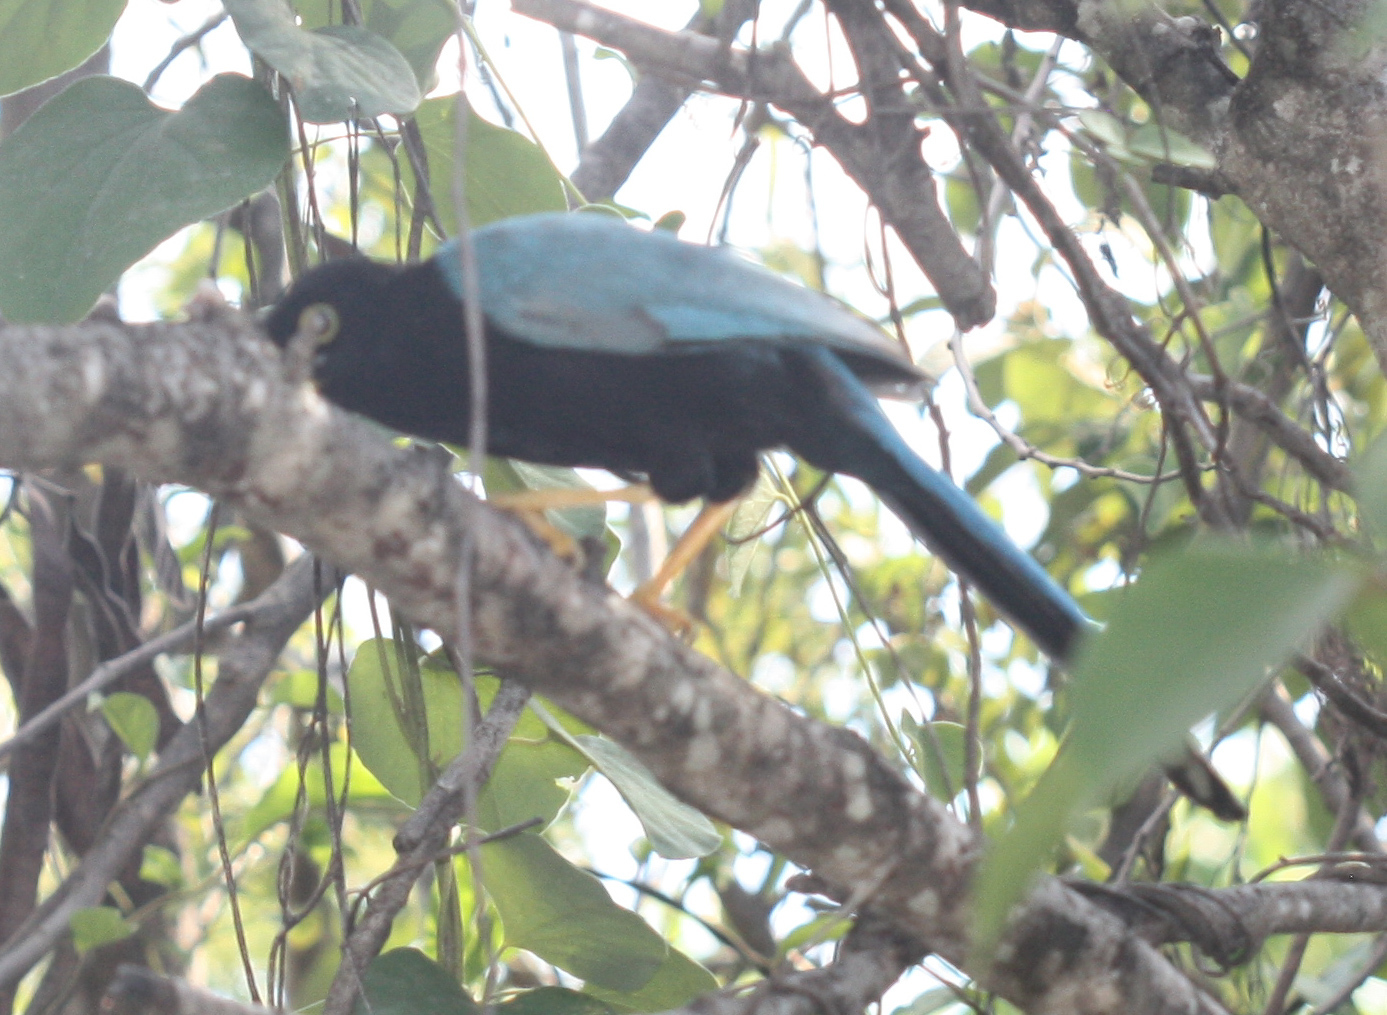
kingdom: Animalia
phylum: Chordata
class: Aves
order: Passeriformes
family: Corvidae
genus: Cyanocorax
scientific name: Cyanocorax yucatanicus
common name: Yucatan jay
